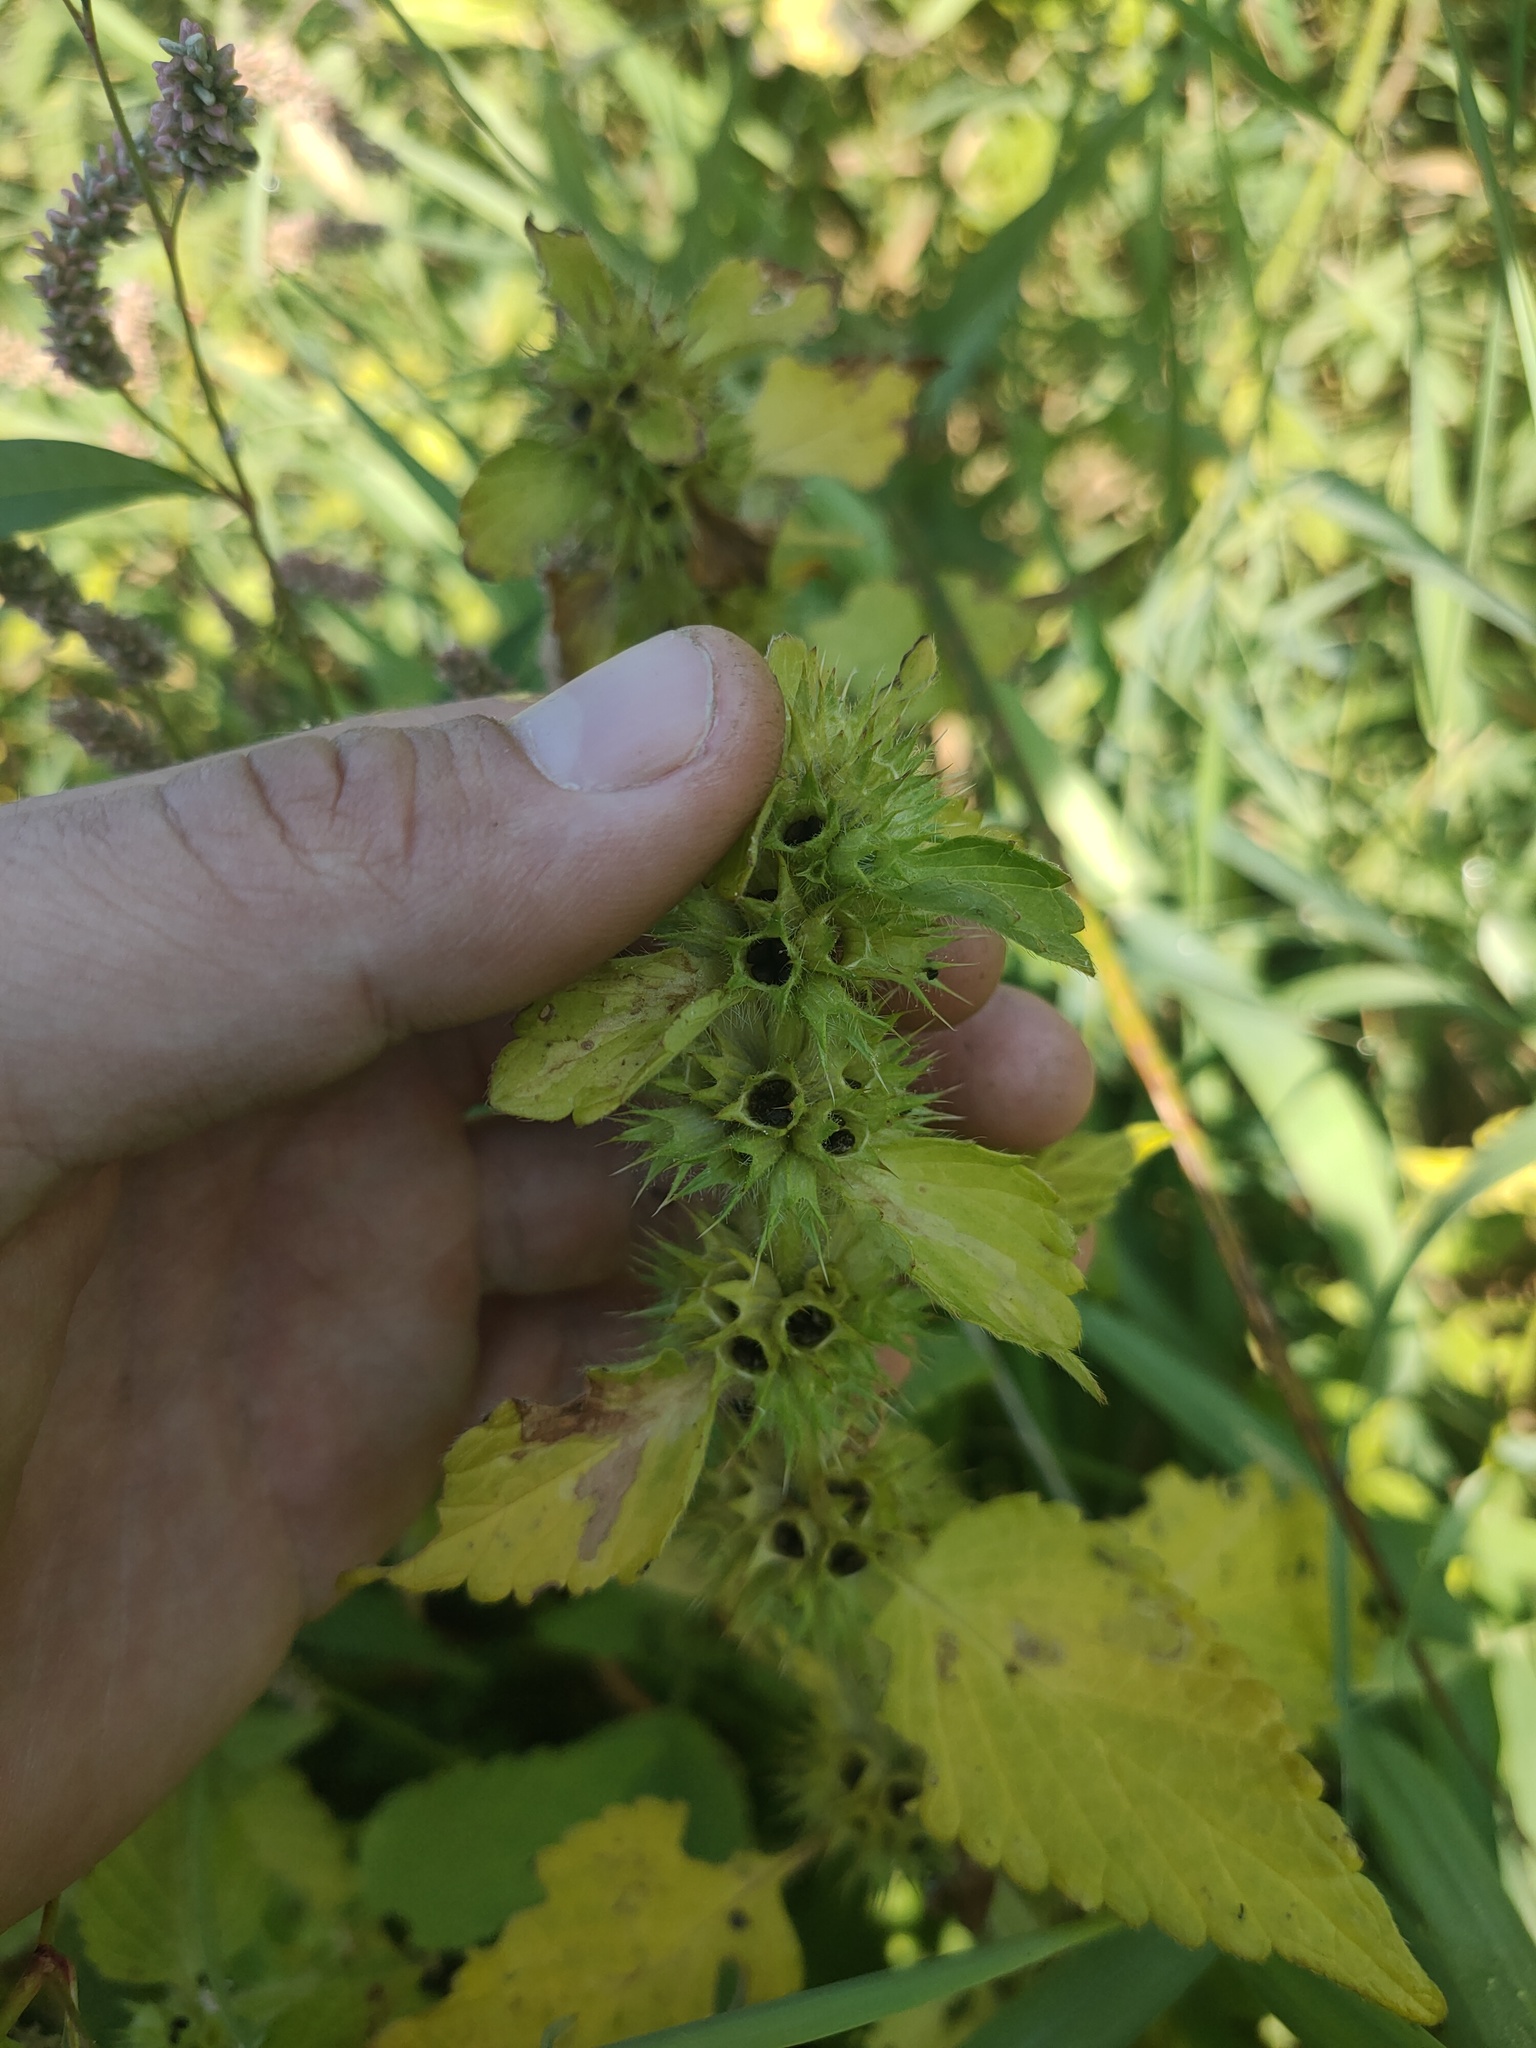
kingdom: Plantae
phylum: Tracheophyta
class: Magnoliopsida
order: Lamiales
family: Lamiaceae
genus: Galeopsis
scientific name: Galeopsis bifida
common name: Bifid hemp-nettle
